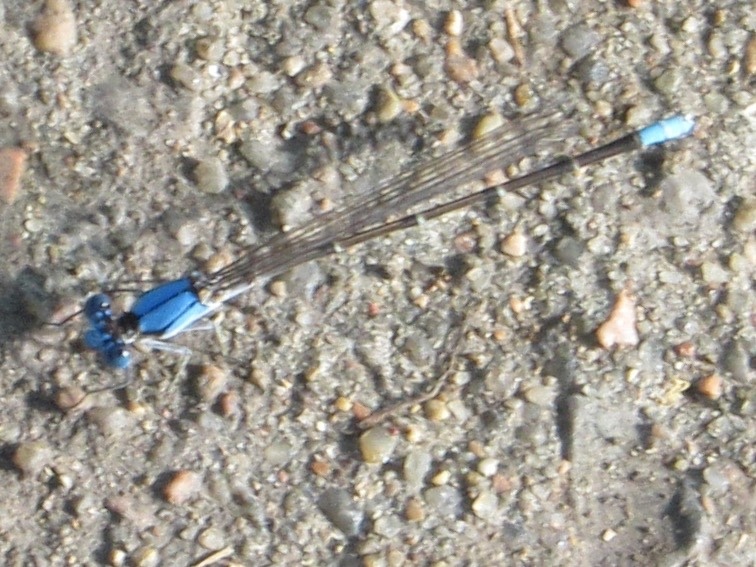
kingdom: Animalia
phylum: Arthropoda
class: Insecta
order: Odonata
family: Coenagrionidae
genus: Argia
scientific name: Argia apicalis
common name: Blue-fronted dancer
